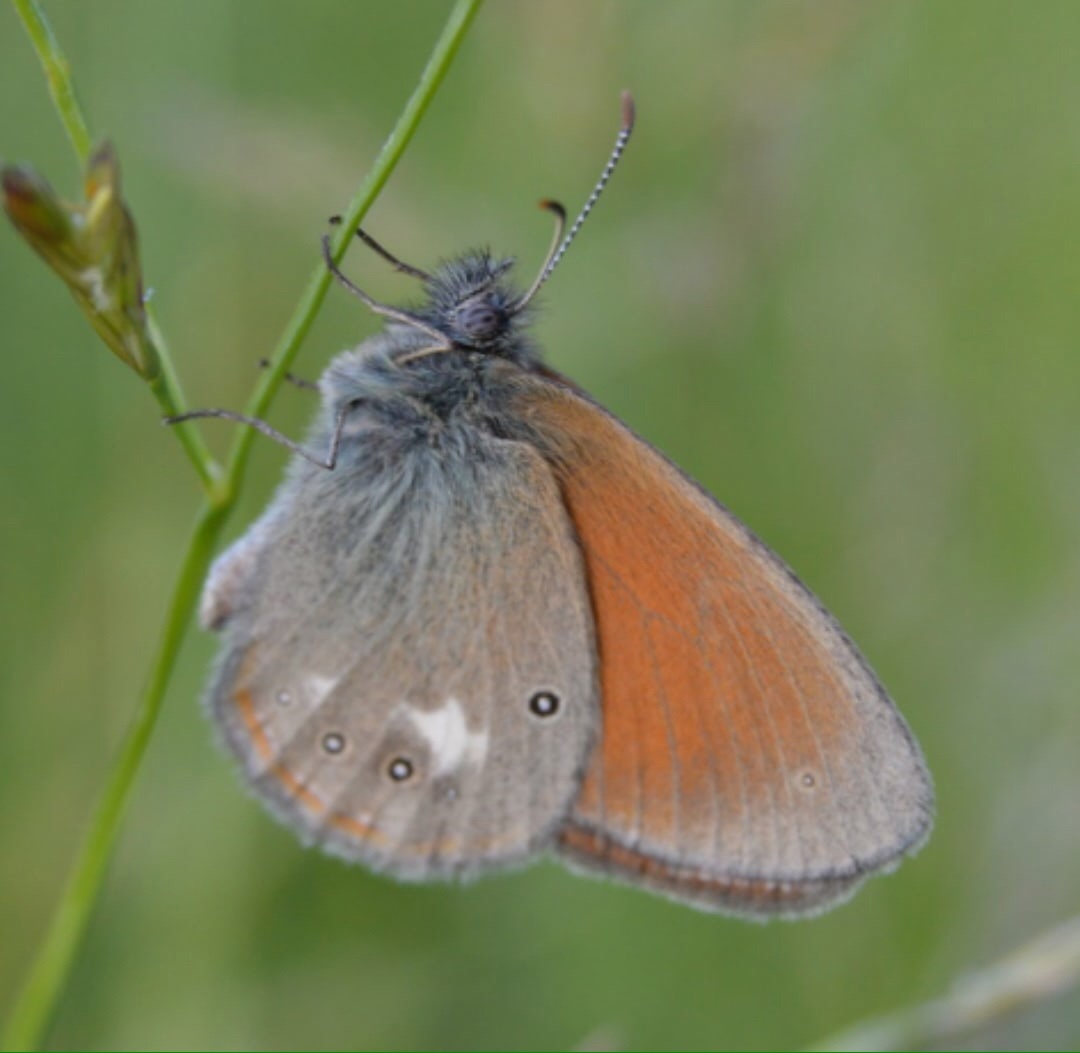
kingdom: Animalia
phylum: Arthropoda
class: Insecta
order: Lepidoptera
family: Nymphalidae
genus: Coenonympha
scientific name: Coenonympha iphis
